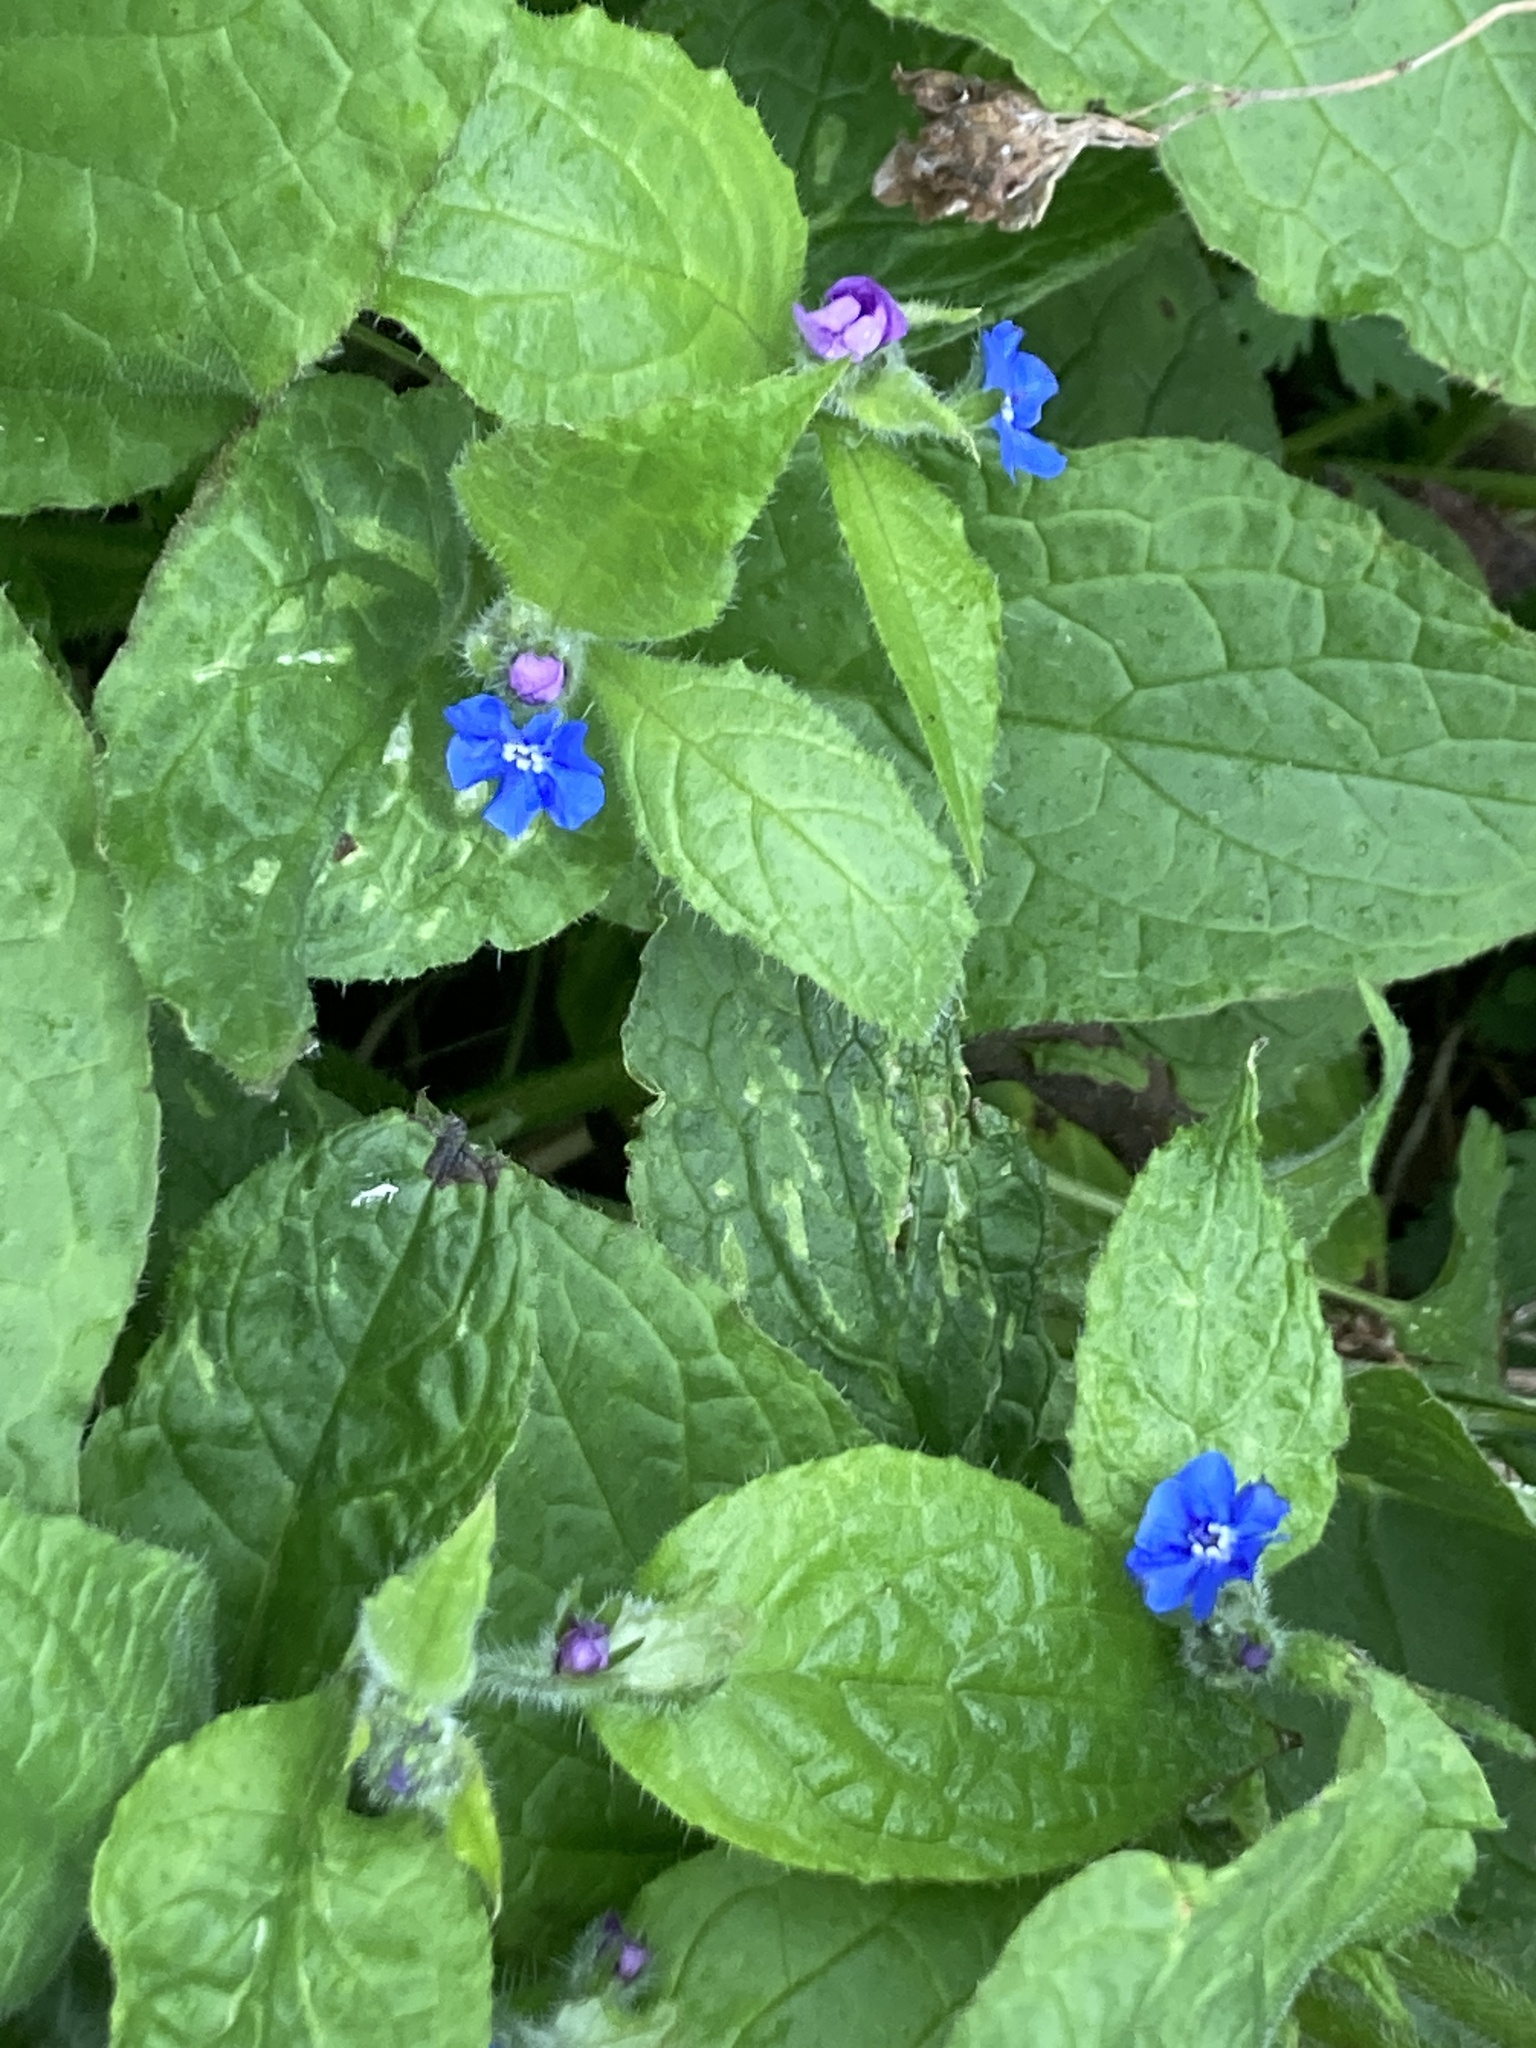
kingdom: Plantae
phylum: Tracheophyta
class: Magnoliopsida
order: Boraginales
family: Boraginaceae
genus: Pentaglottis
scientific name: Pentaglottis sempervirens
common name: Green alkanet
